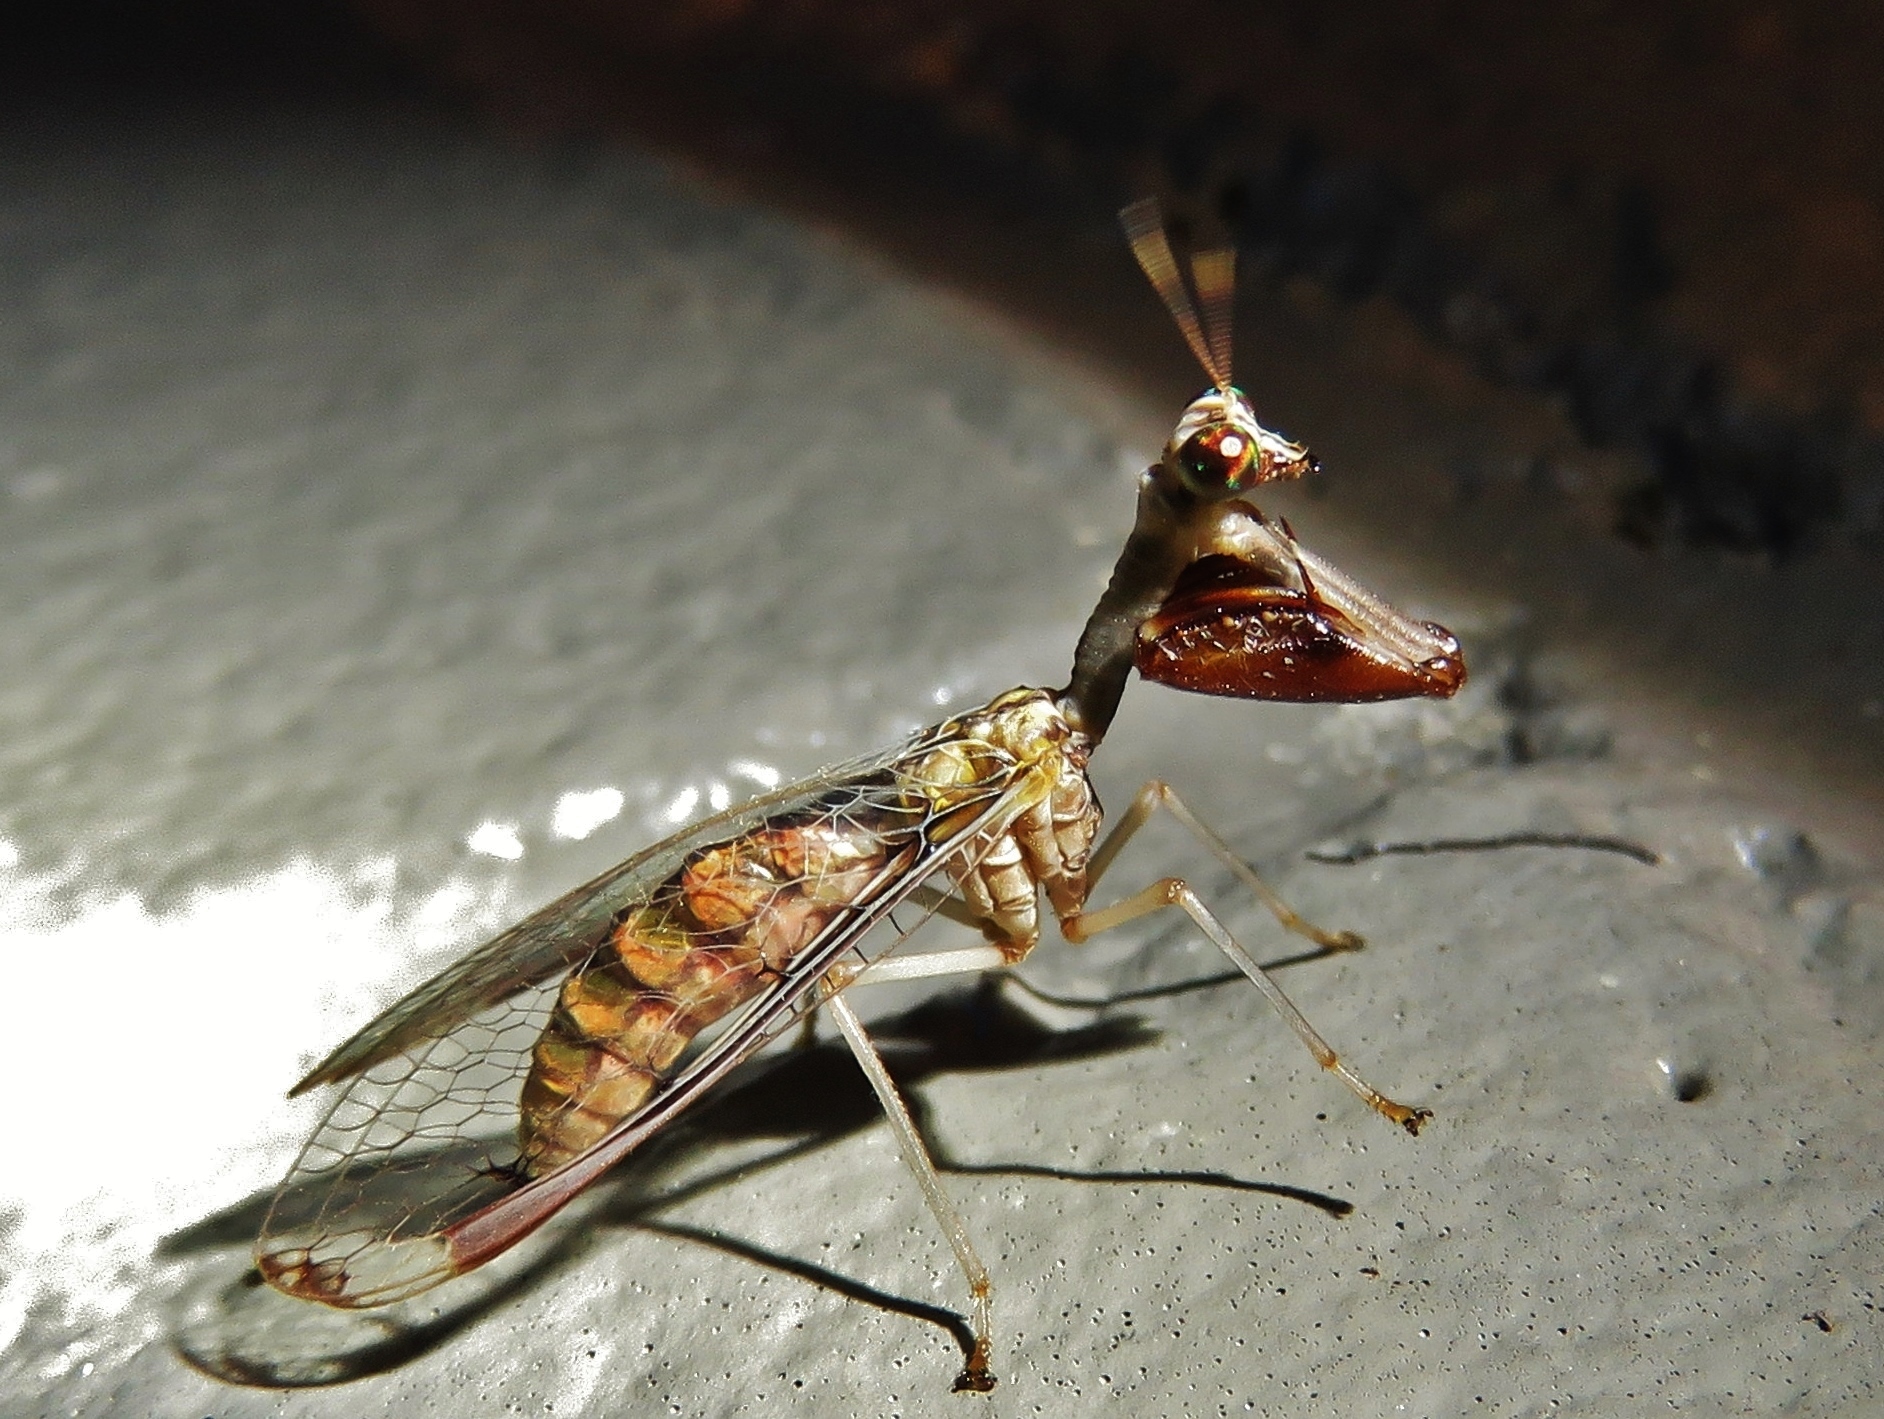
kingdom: Animalia
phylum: Arthropoda
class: Insecta
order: Neuroptera
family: Mantispidae
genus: Dicromantispa
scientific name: Dicromantispa interrupta
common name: Four-spotted mantidfly
